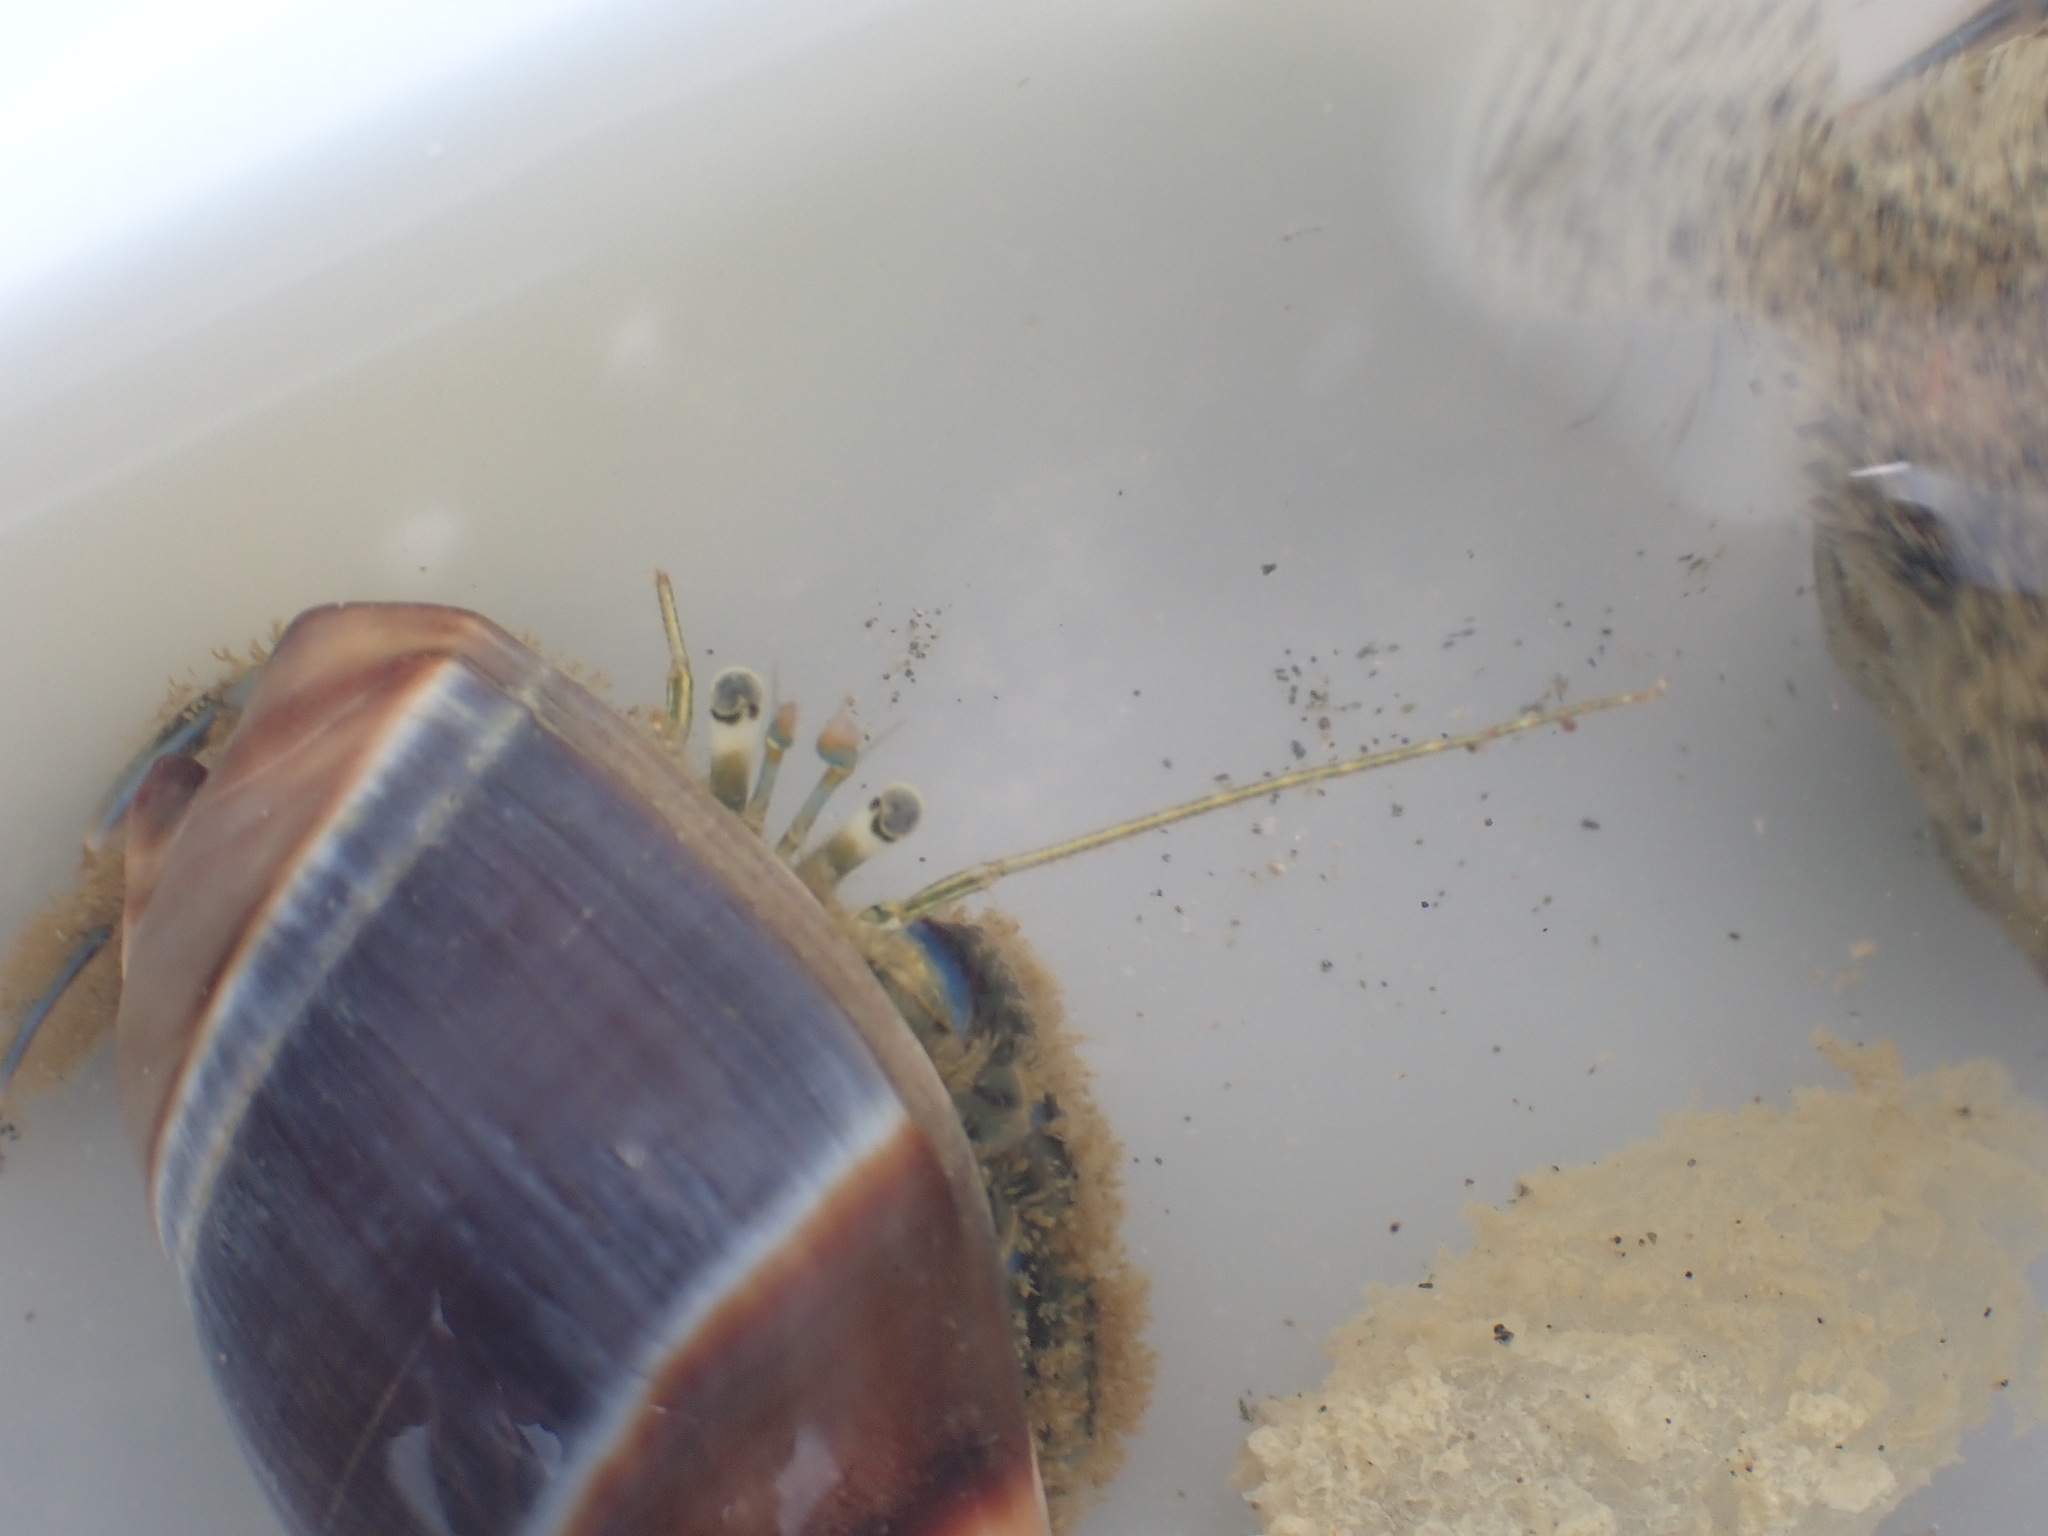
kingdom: Animalia
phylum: Arthropoda
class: Malacostraca
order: Decapoda
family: Paguridae
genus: Pagurus
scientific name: Pagurus novizealandiae
